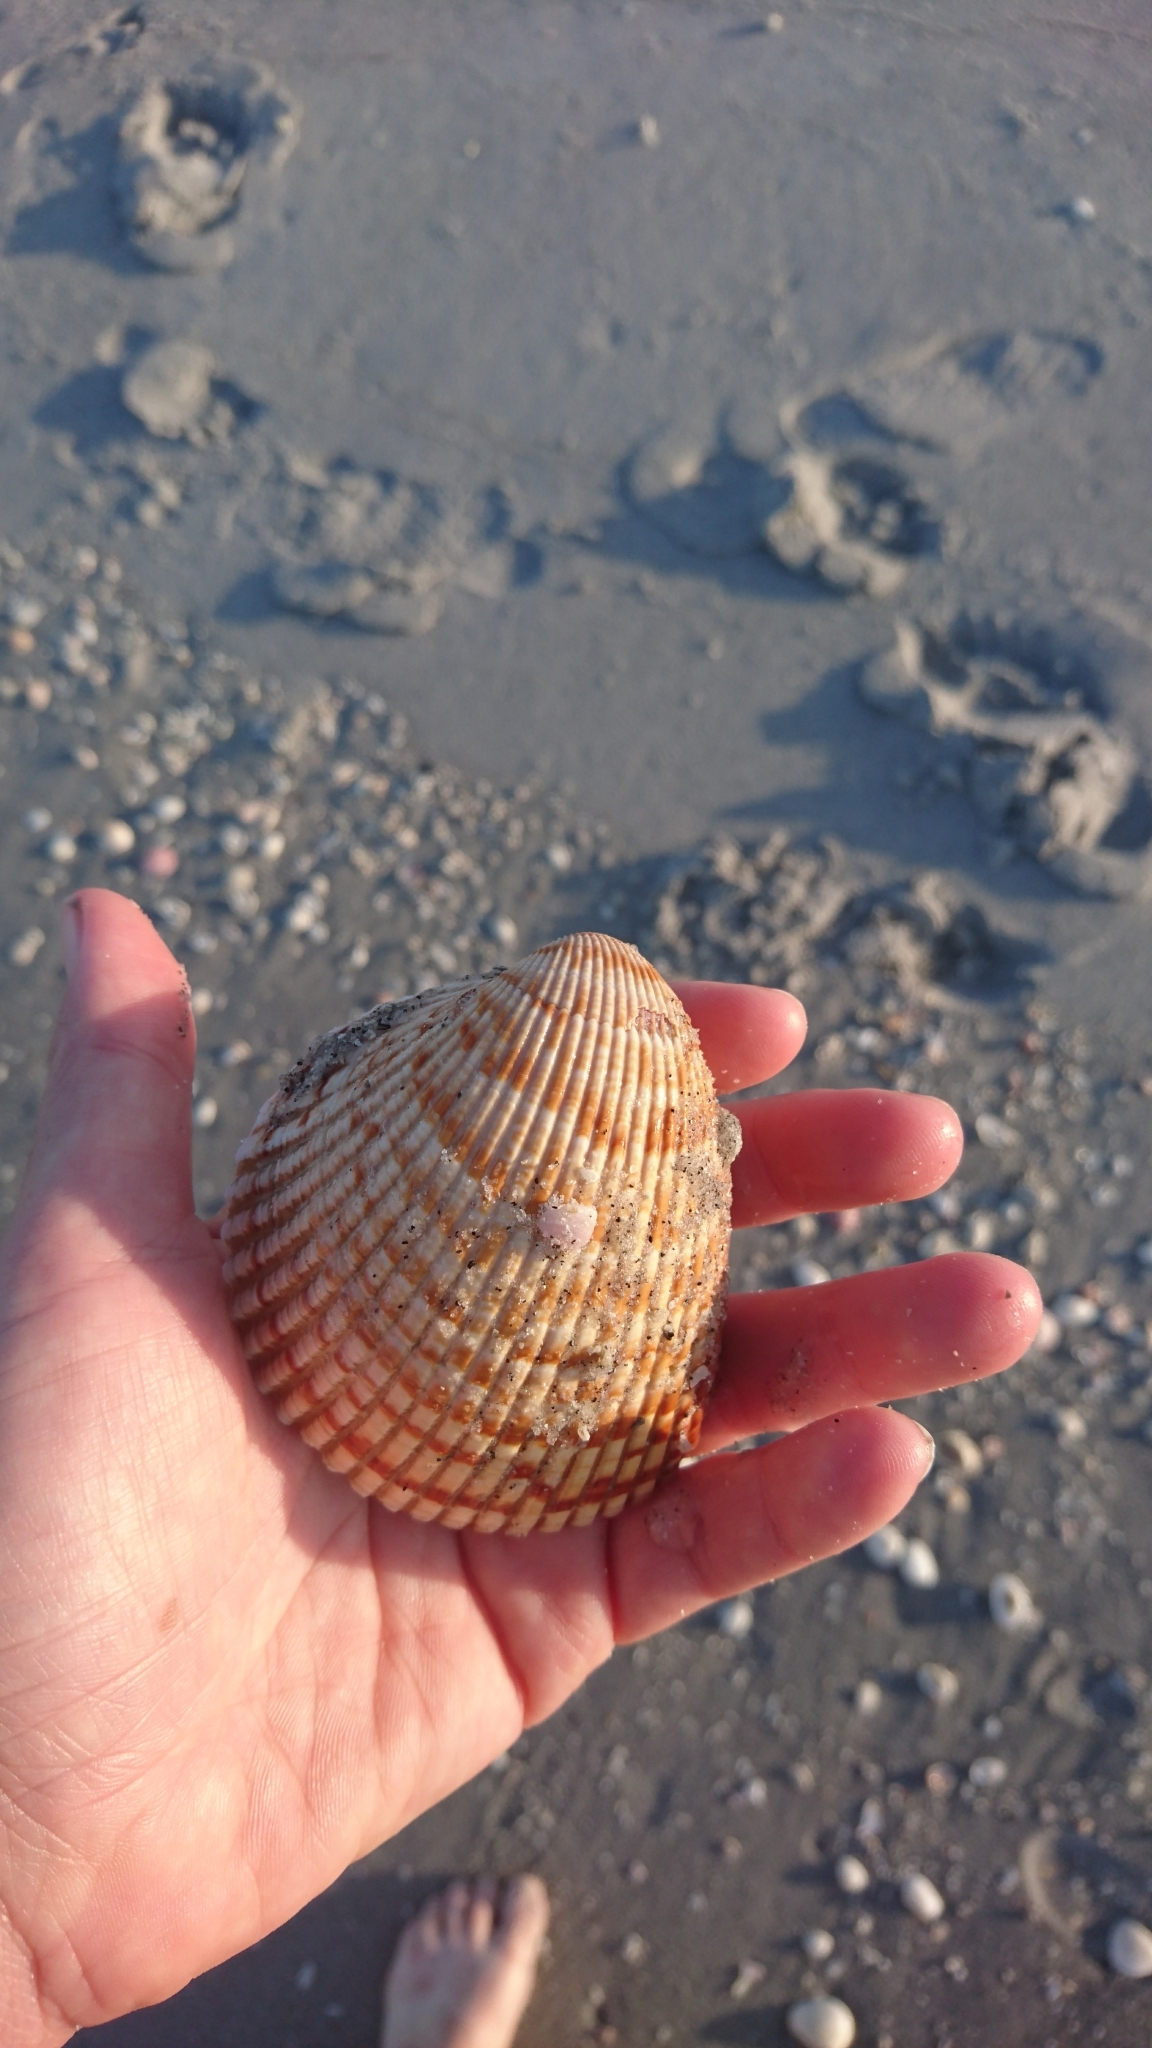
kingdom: Animalia
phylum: Mollusca
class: Bivalvia
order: Cardiida
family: Cardiidae
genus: Dinocardium
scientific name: Dinocardium robustum
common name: Atlantic giant cockle
